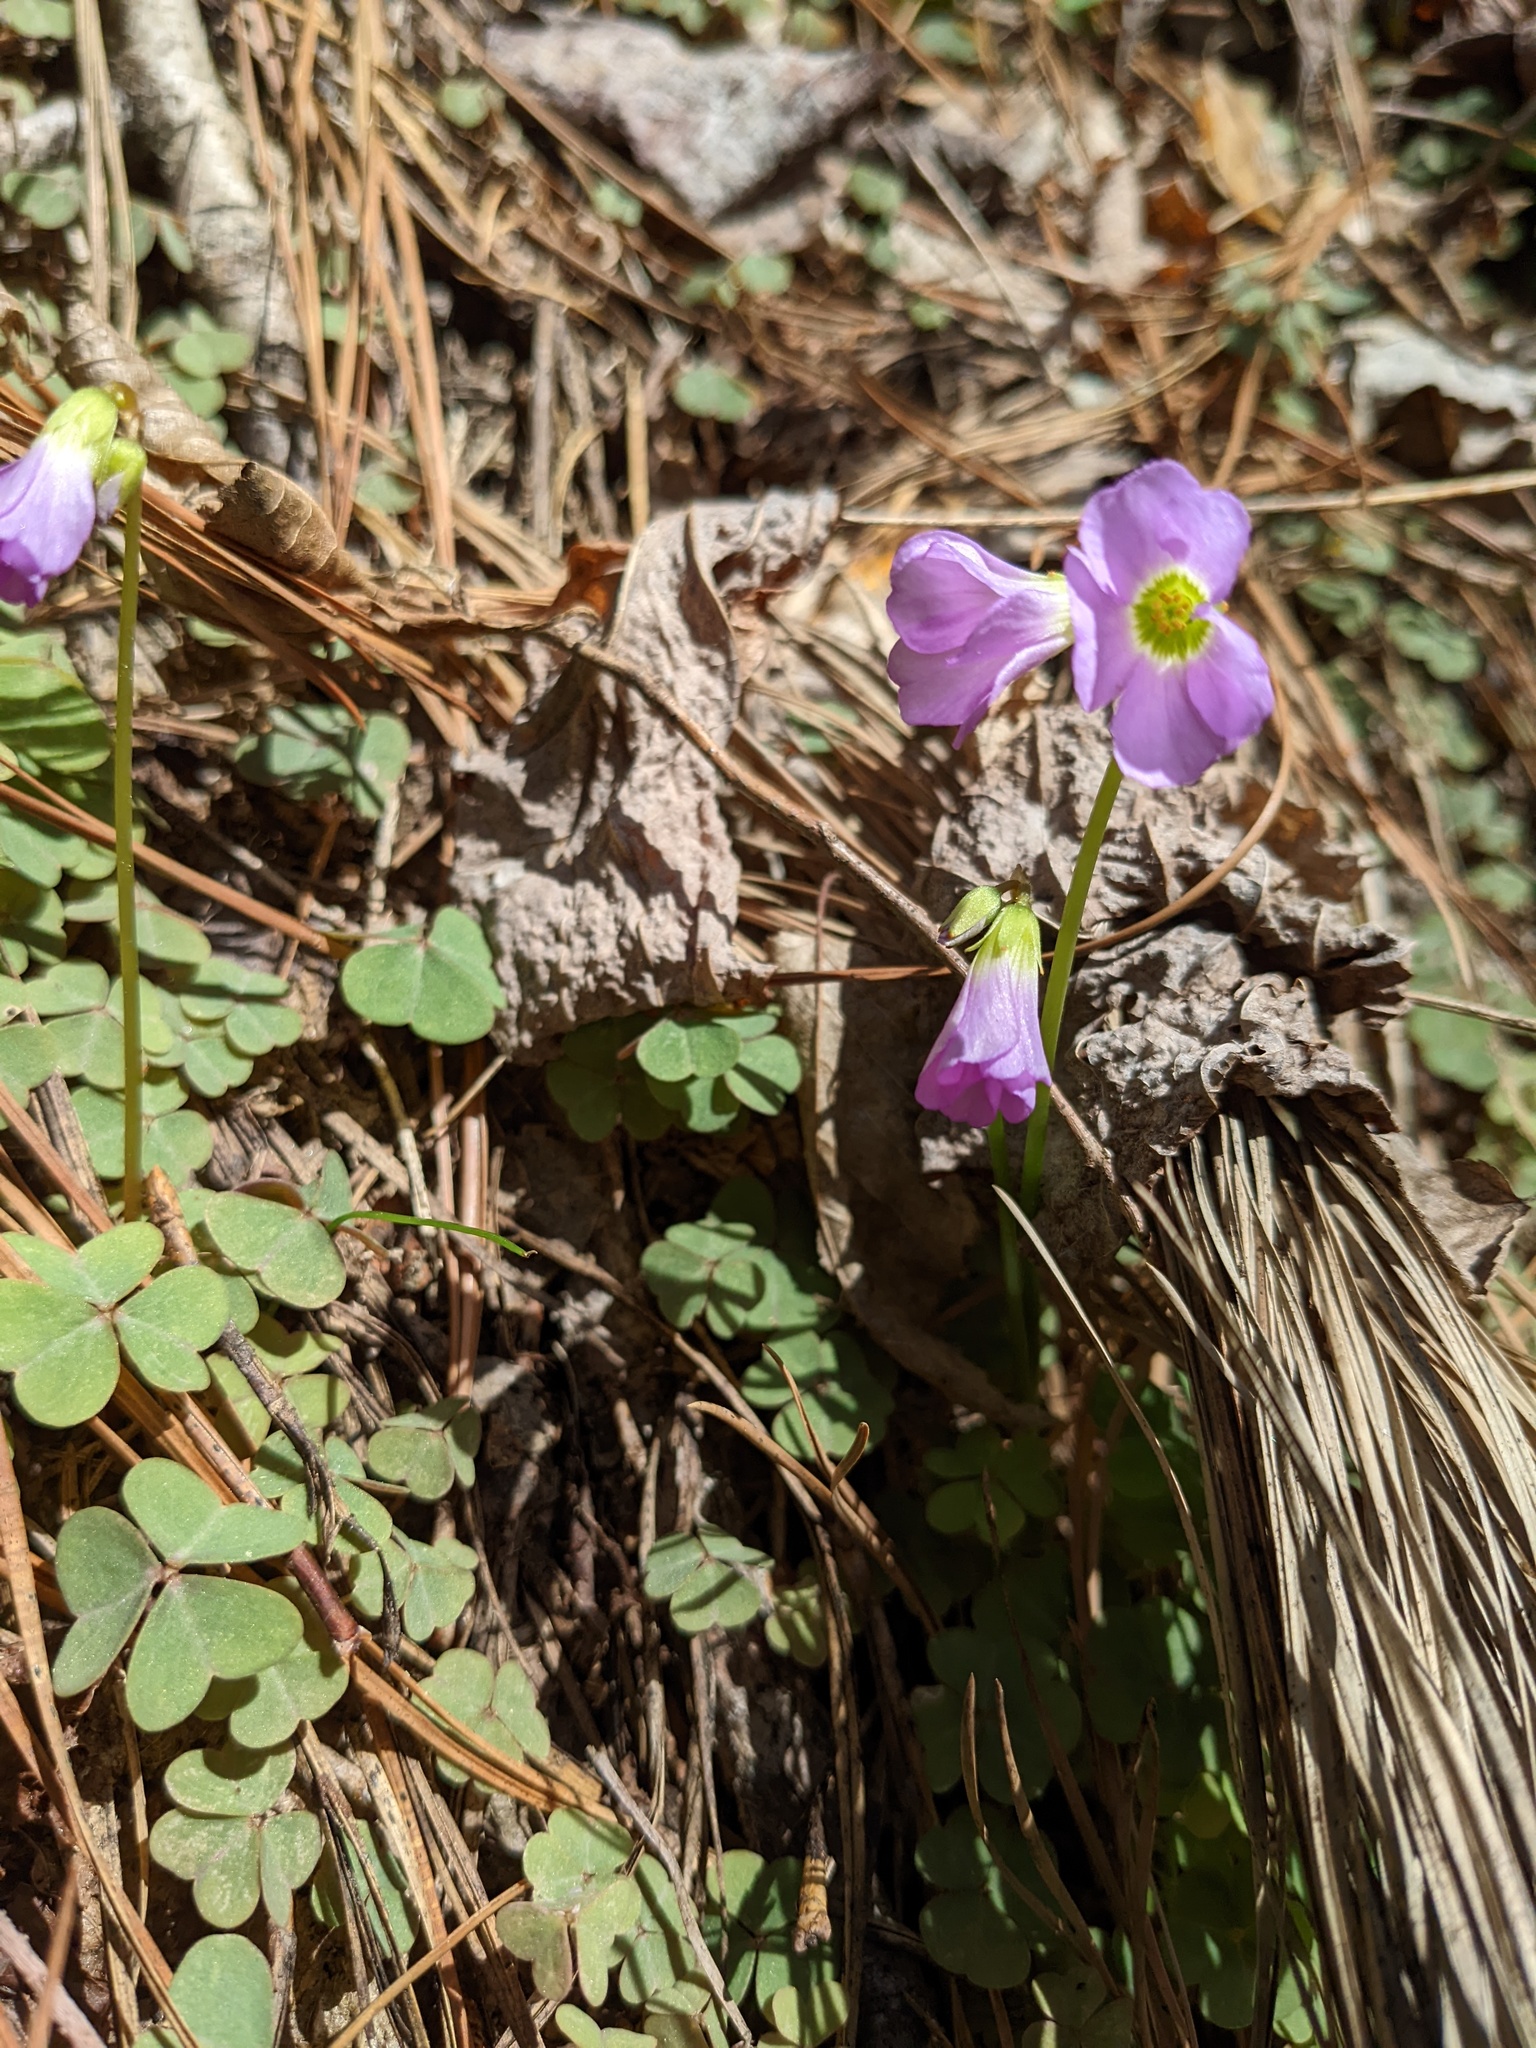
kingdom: Plantae
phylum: Tracheophyta
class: Magnoliopsida
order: Oxalidales
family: Oxalidaceae
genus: Oxalis
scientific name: Oxalis violacea
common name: Violet wood-sorrel
